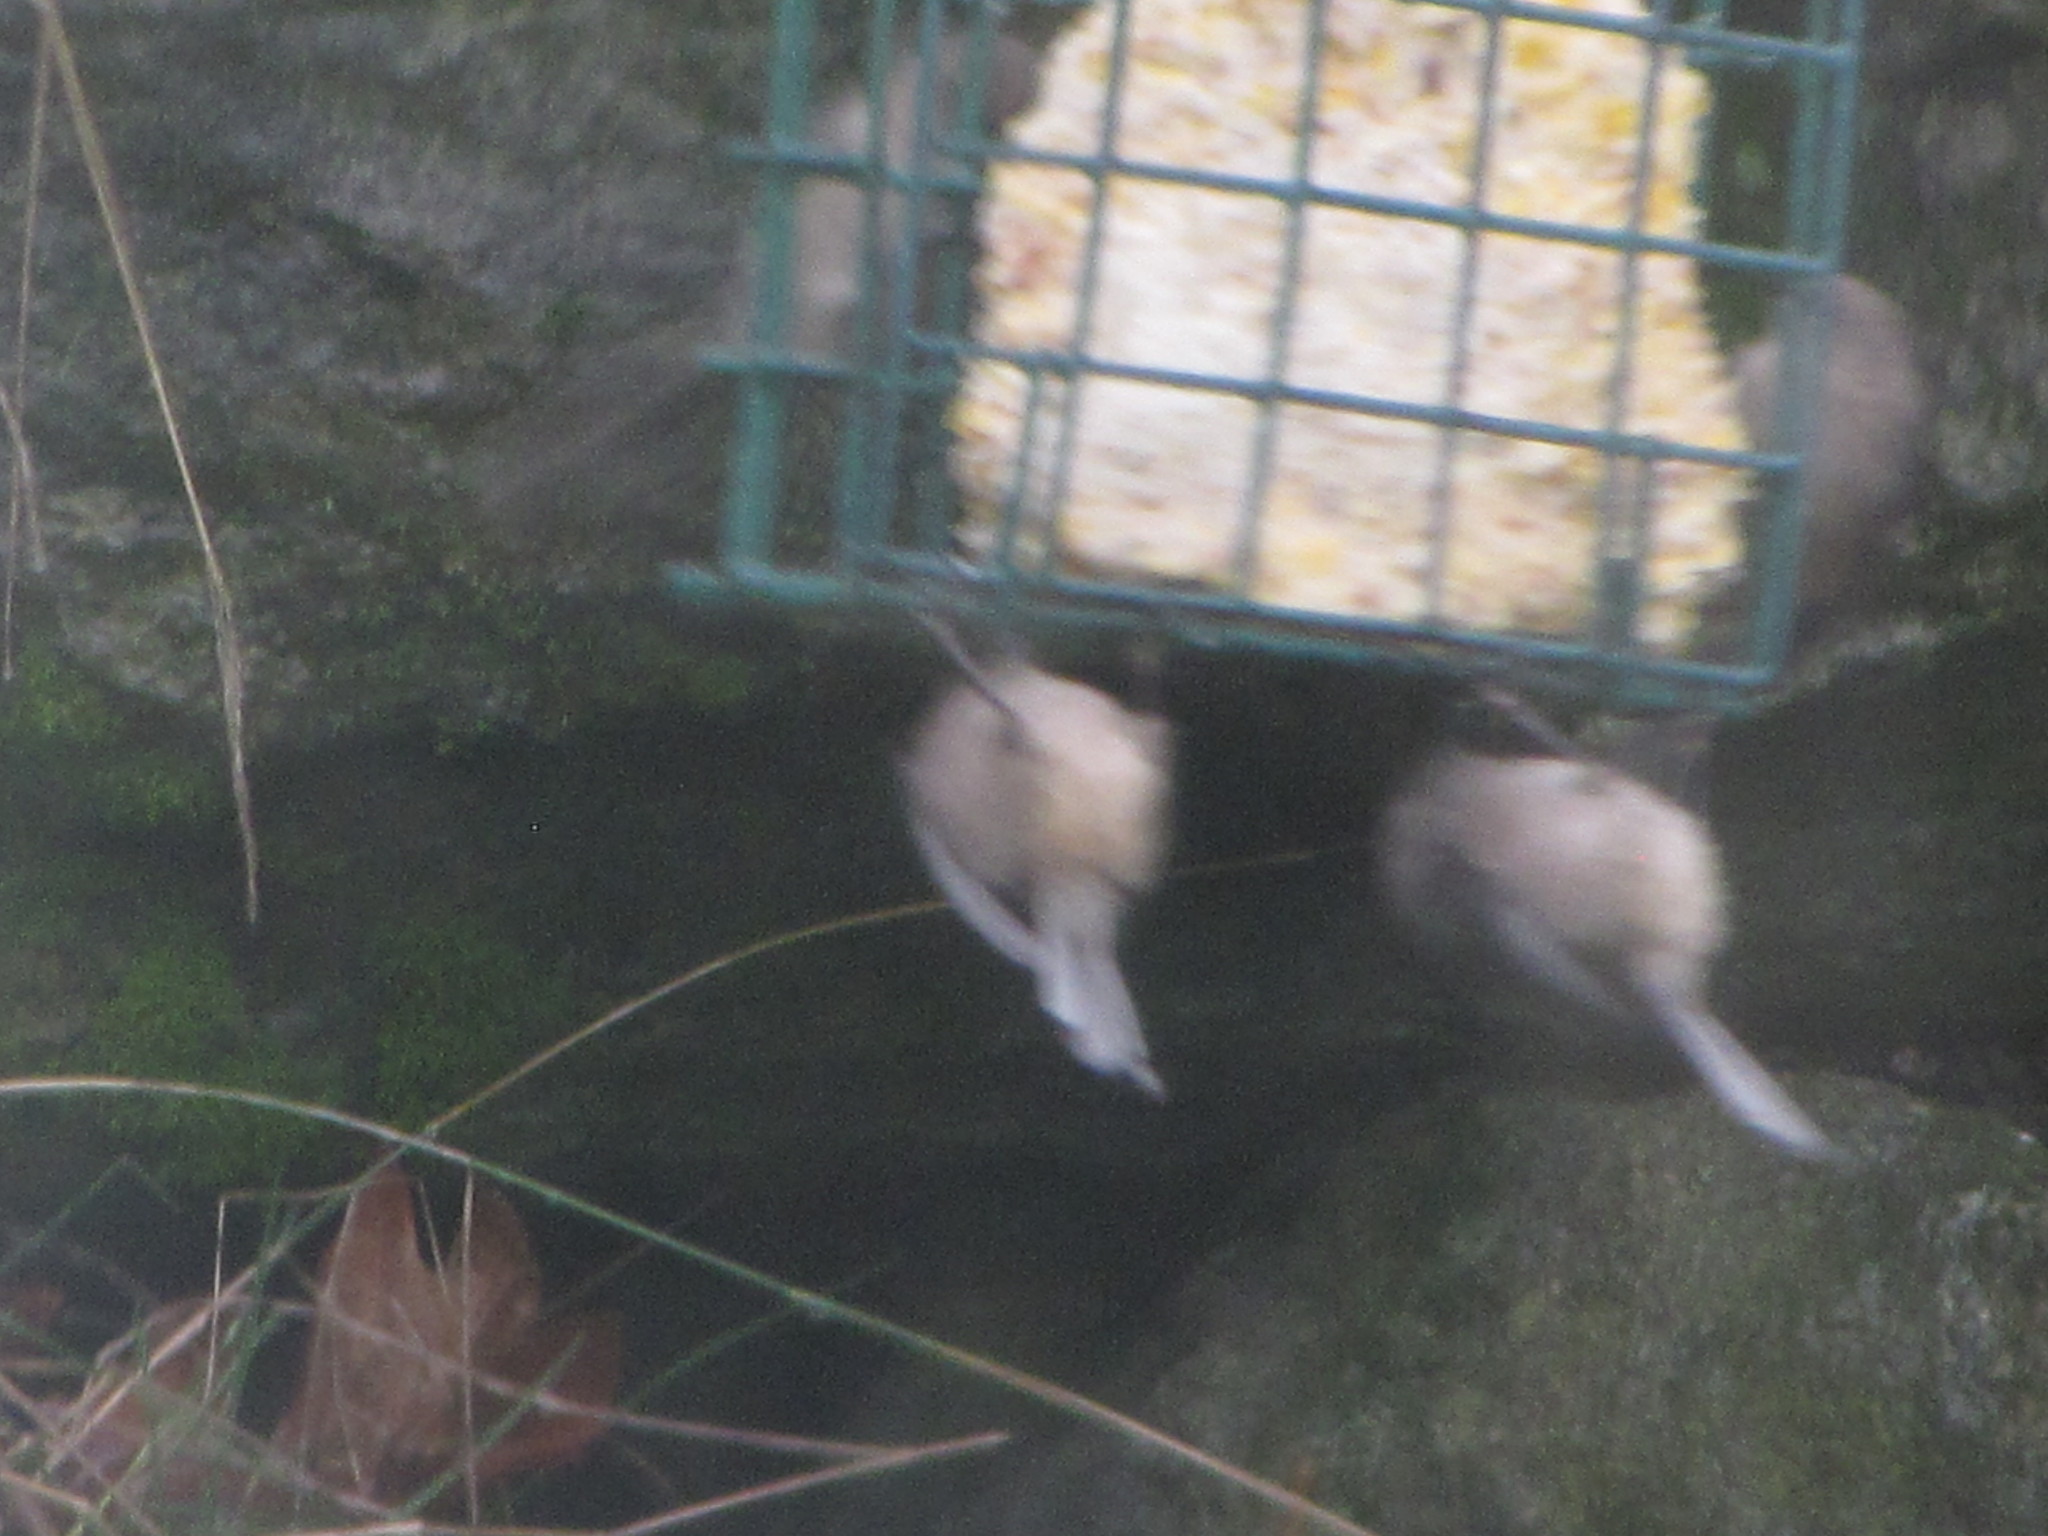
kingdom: Animalia
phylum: Chordata
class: Aves
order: Passeriformes
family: Aegithalidae
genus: Psaltriparus
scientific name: Psaltriparus minimus
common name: American bushtit
